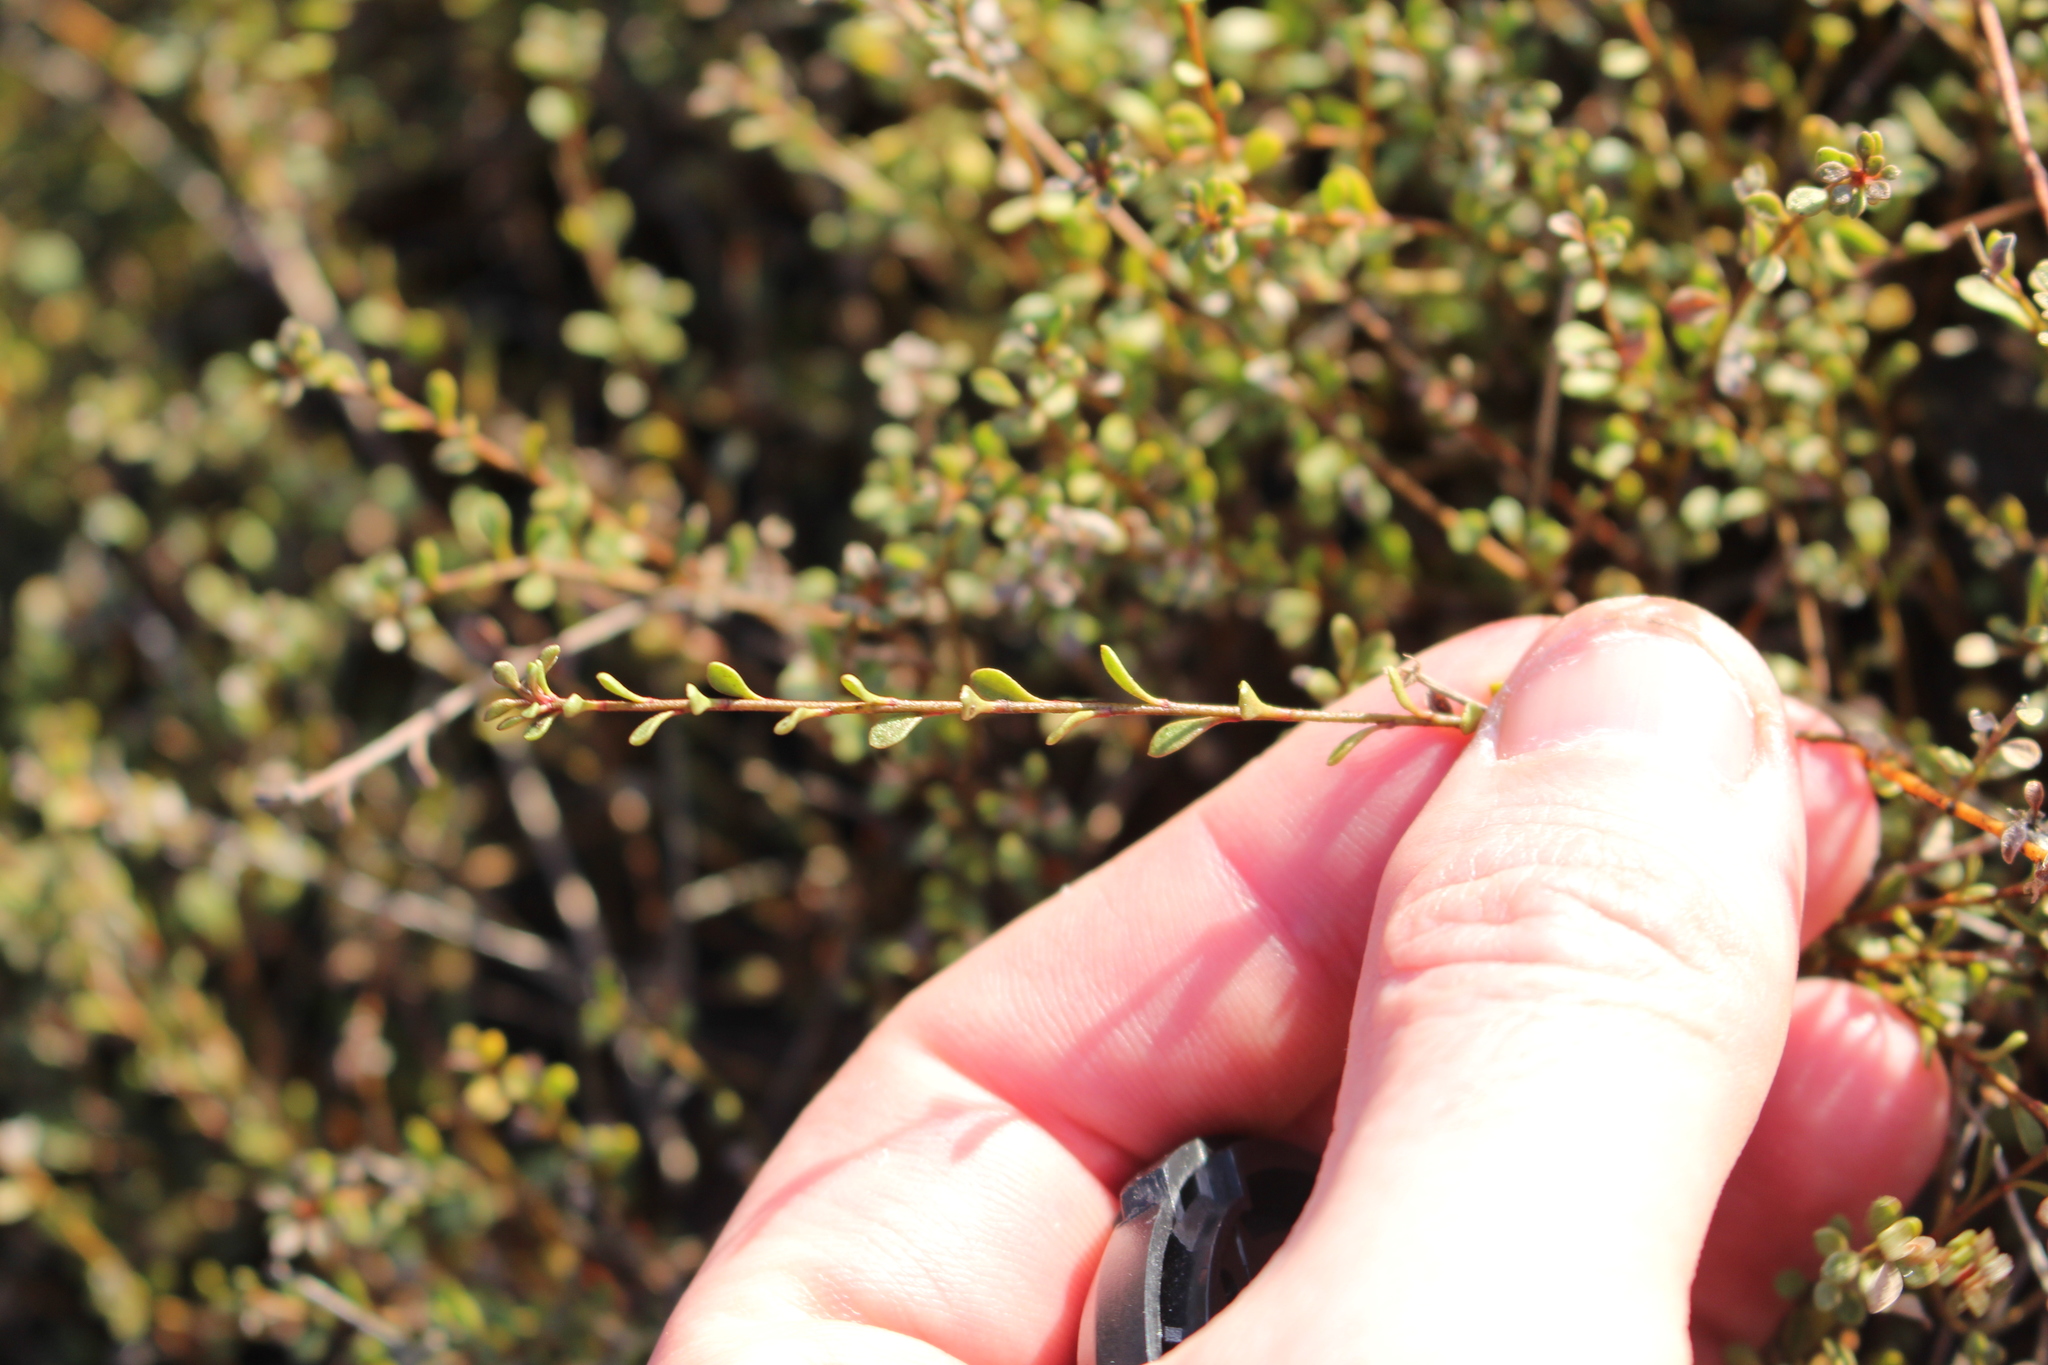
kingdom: Plantae
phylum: Tracheophyta
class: Magnoliopsida
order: Ericales
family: Primulaceae
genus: Samolus
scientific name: Samolus repens
